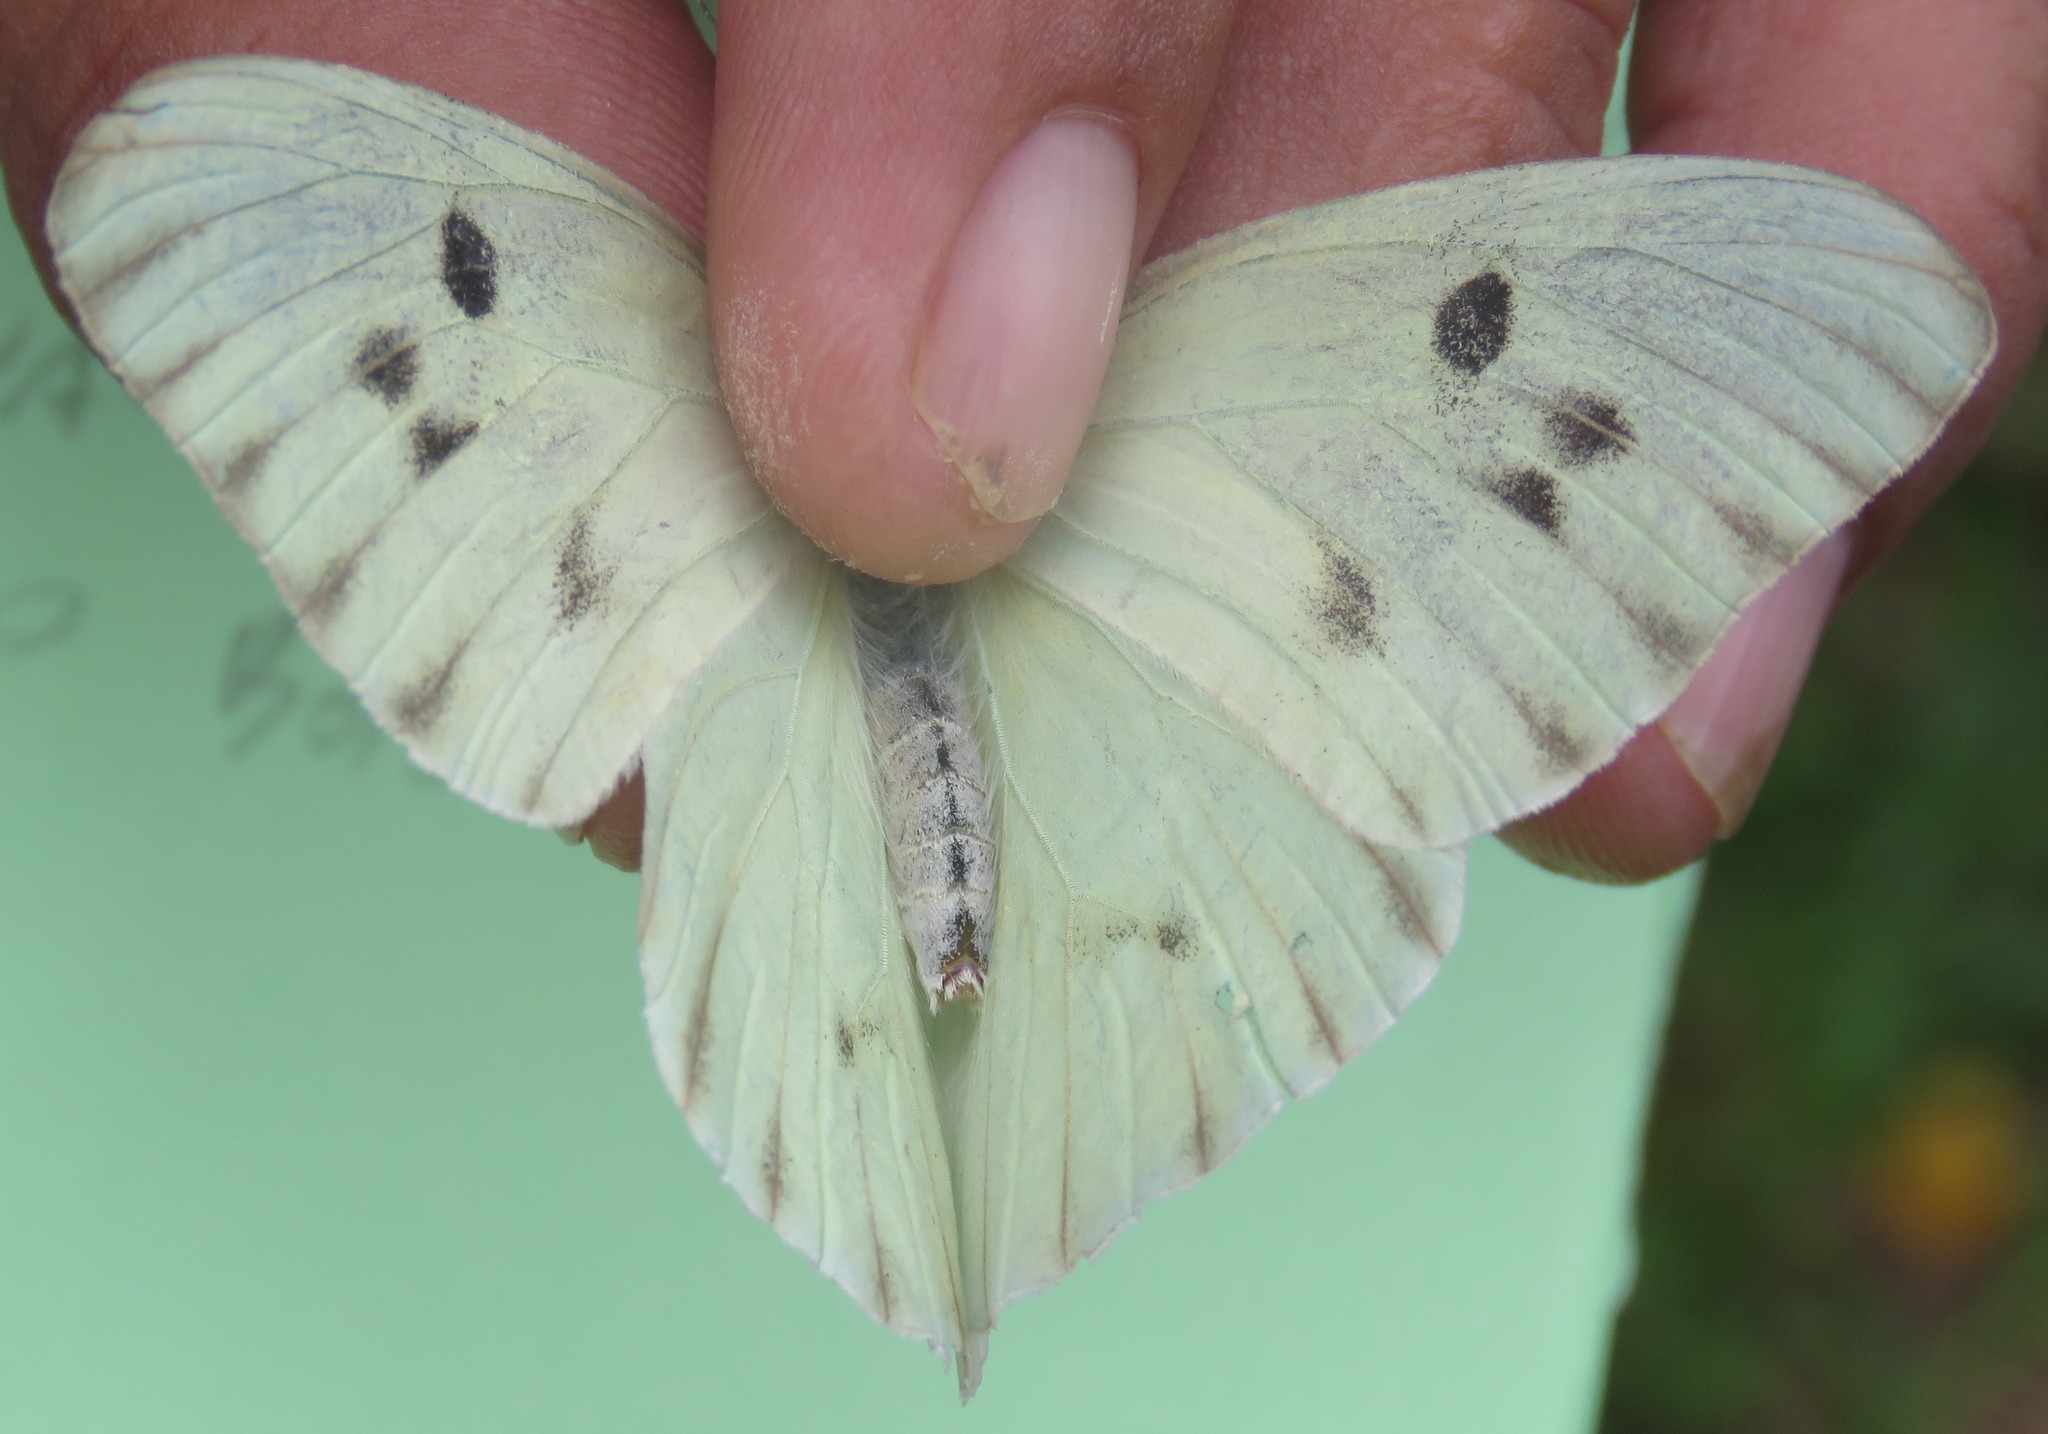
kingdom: Animalia
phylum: Arthropoda
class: Insecta
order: Lepidoptera
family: Pieridae
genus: Ganyra
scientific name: Ganyra josephina
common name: Giant white
